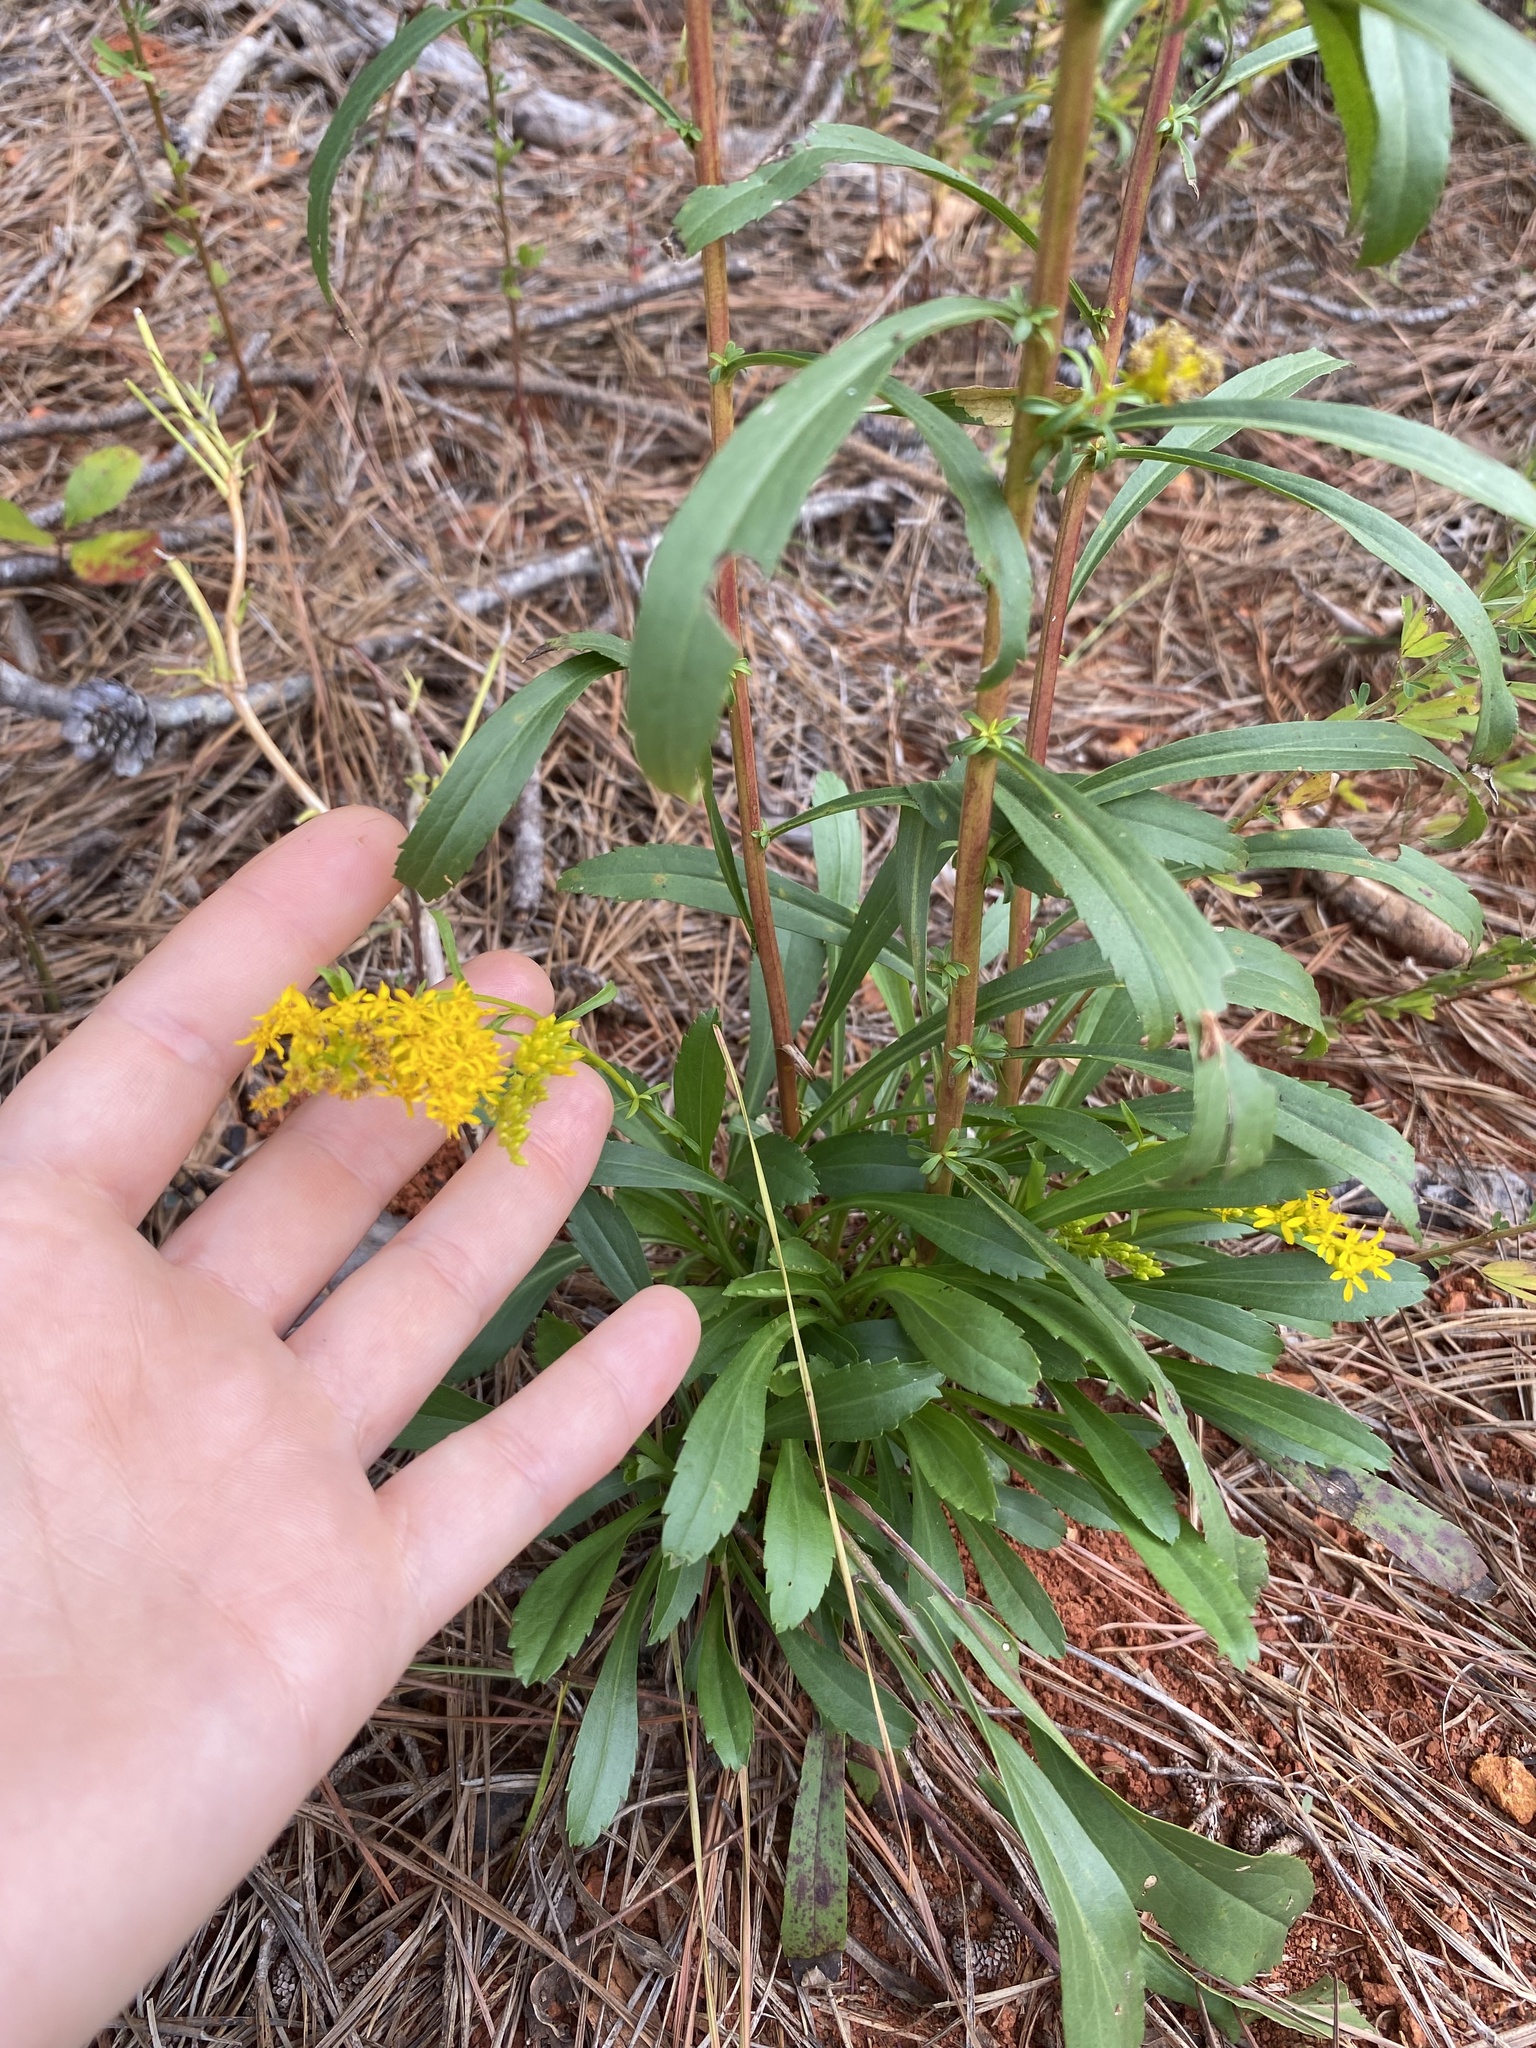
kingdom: Plantae
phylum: Tracheophyta
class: Magnoliopsida
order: Asterales
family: Asteraceae
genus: Solidago
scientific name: Solidago pinetorum
